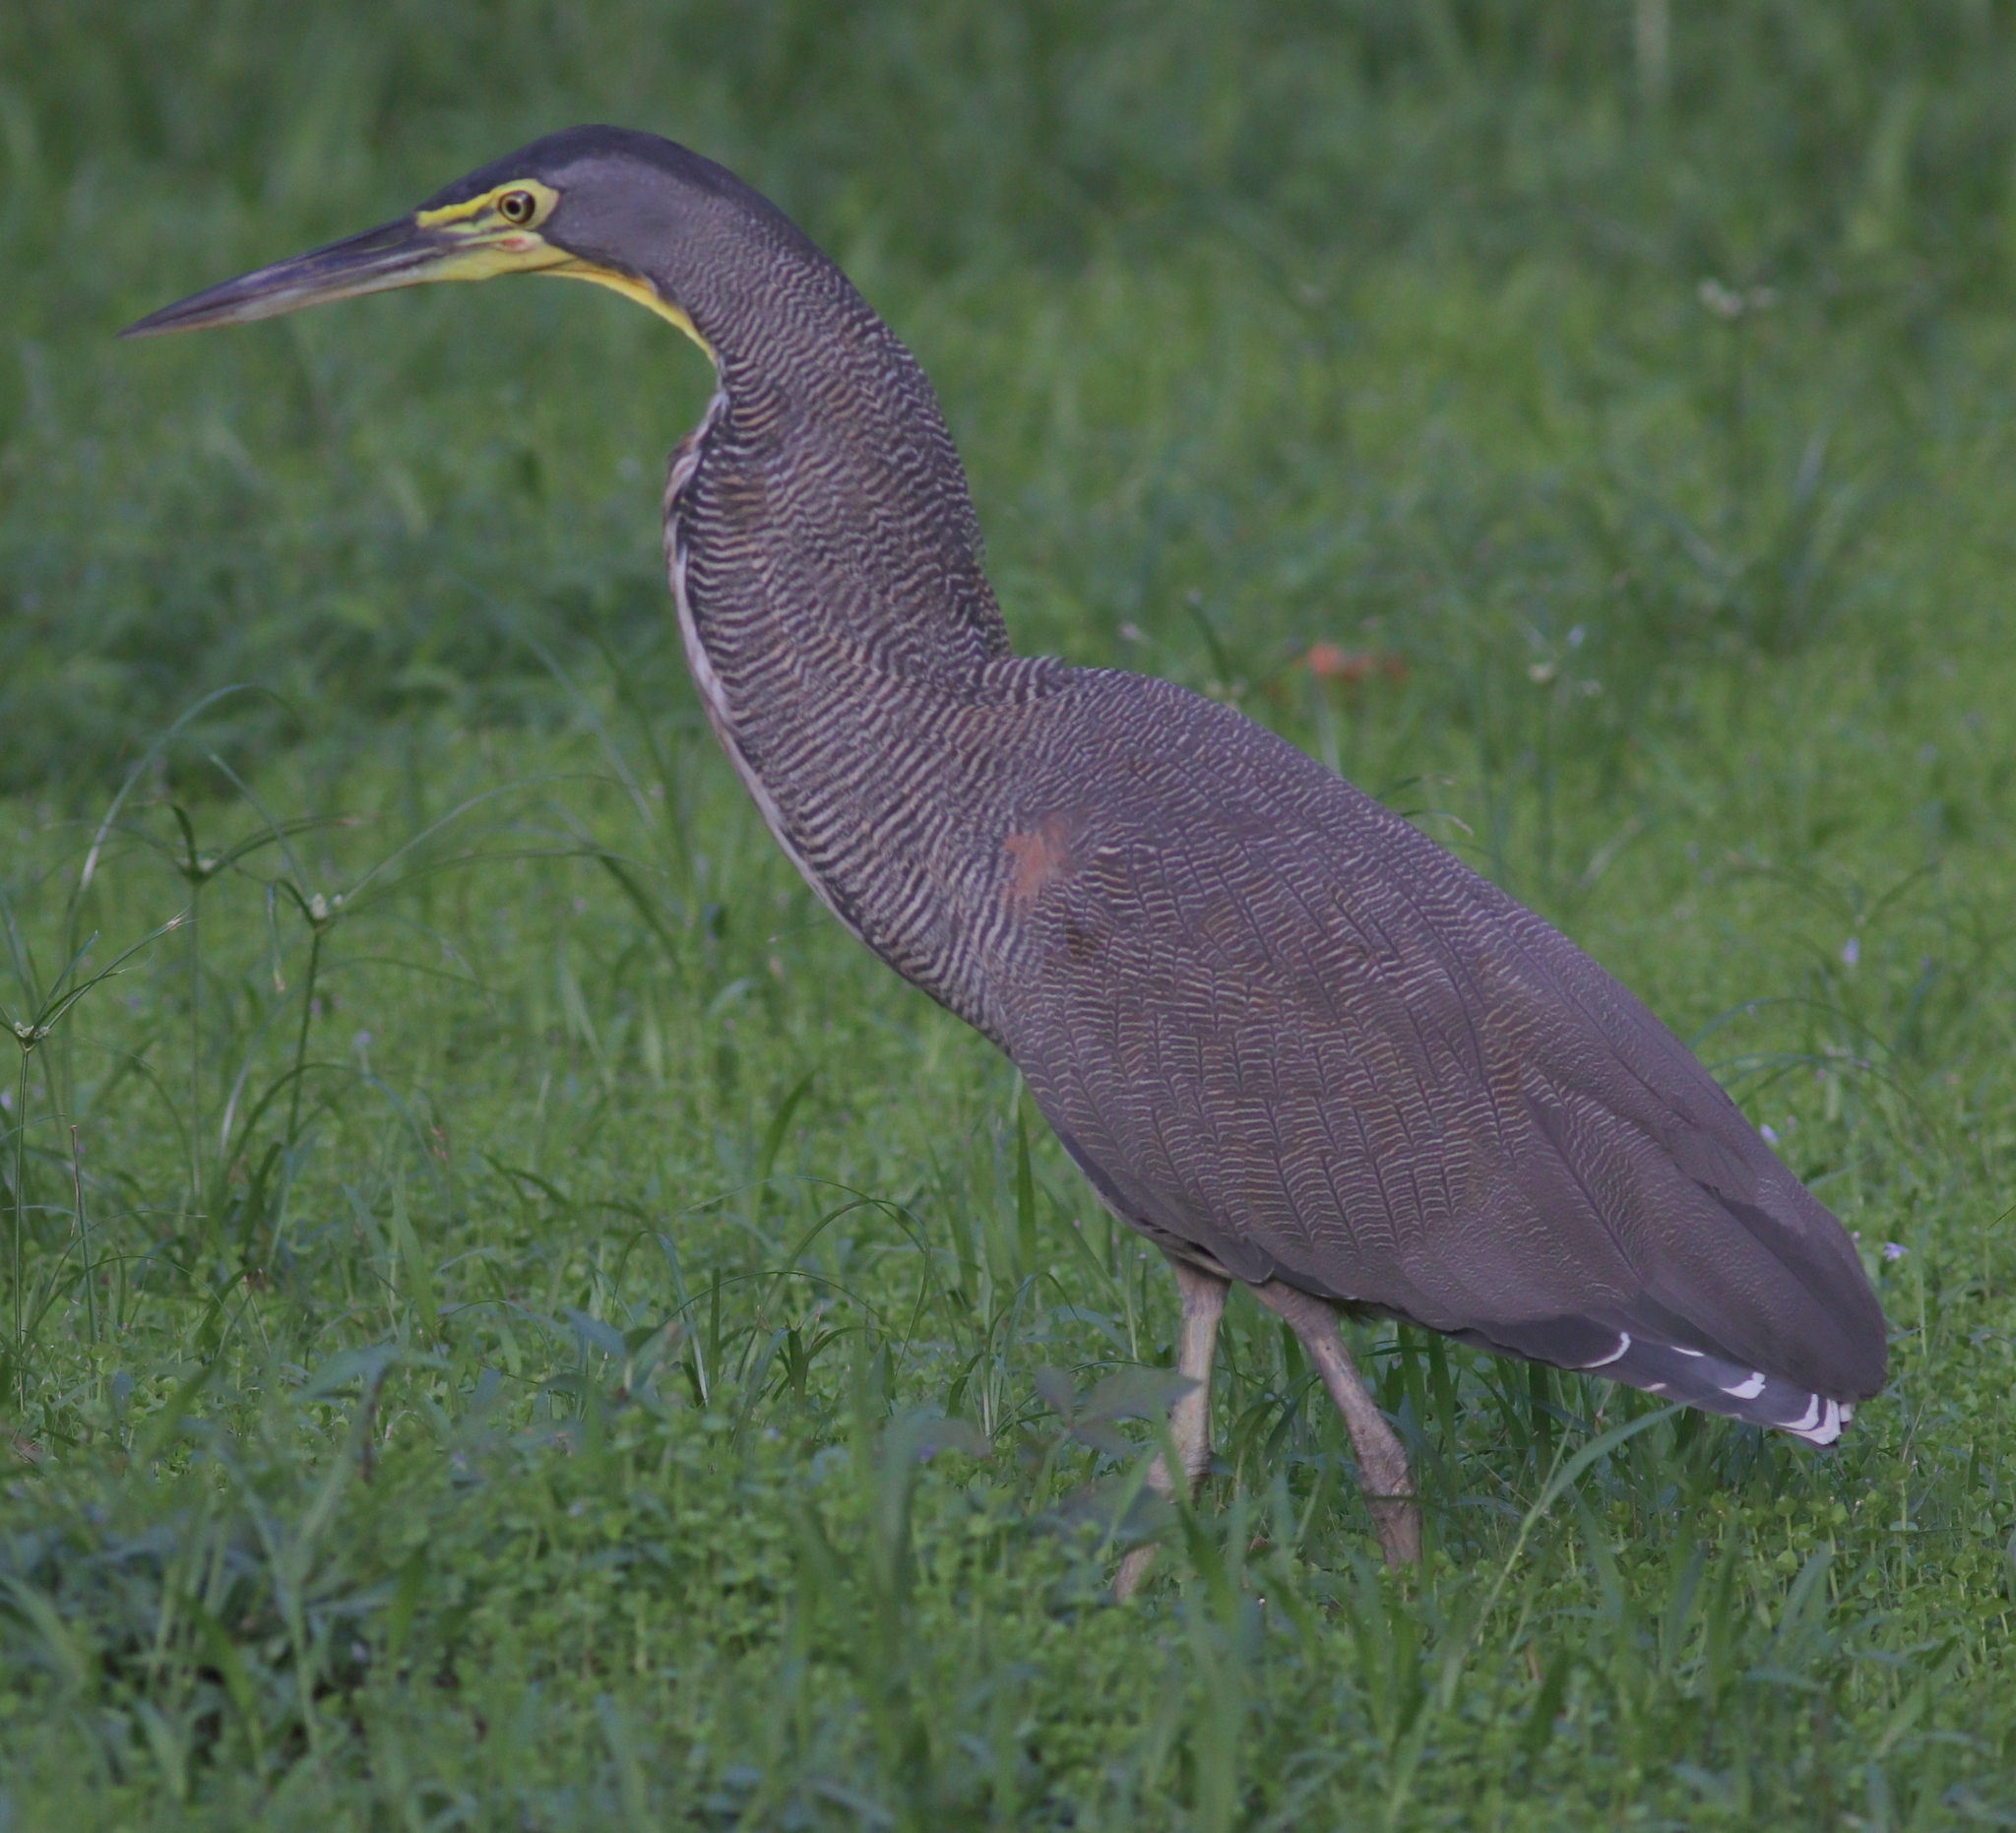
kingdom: Animalia
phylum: Chordata
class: Aves
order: Pelecaniformes
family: Ardeidae
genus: Tigrisoma
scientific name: Tigrisoma mexicanum
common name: Bare-throated tiger-heron
